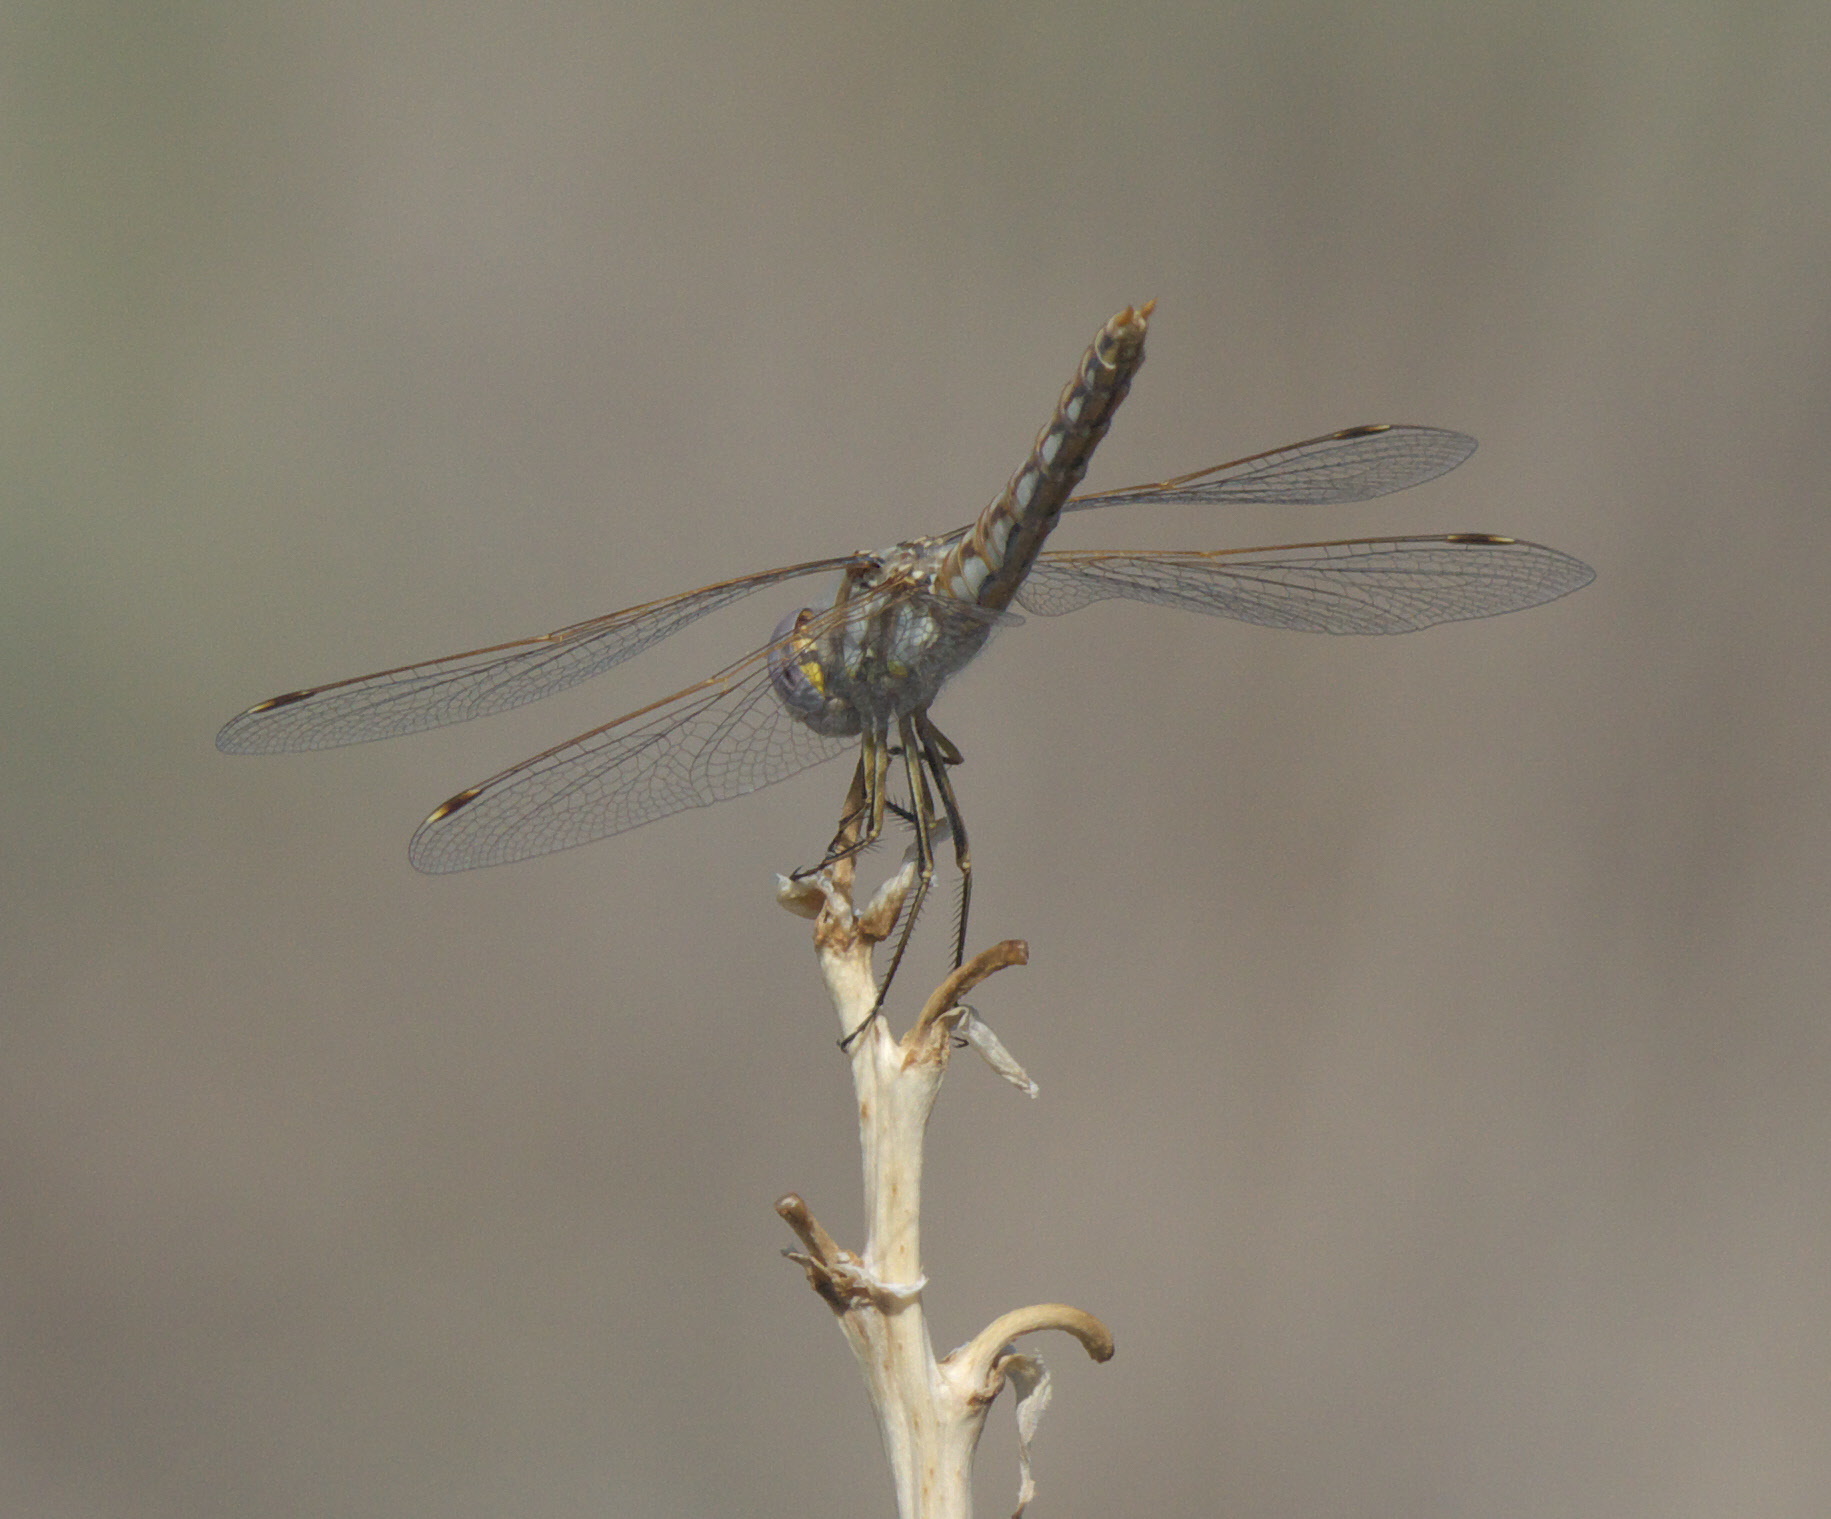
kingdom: Animalia
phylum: Arthropoda
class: Insecta
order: Odonata
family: Libellulidae
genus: Sympetrum
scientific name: Sympetrum corruptum
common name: Variegated meadowhawk
